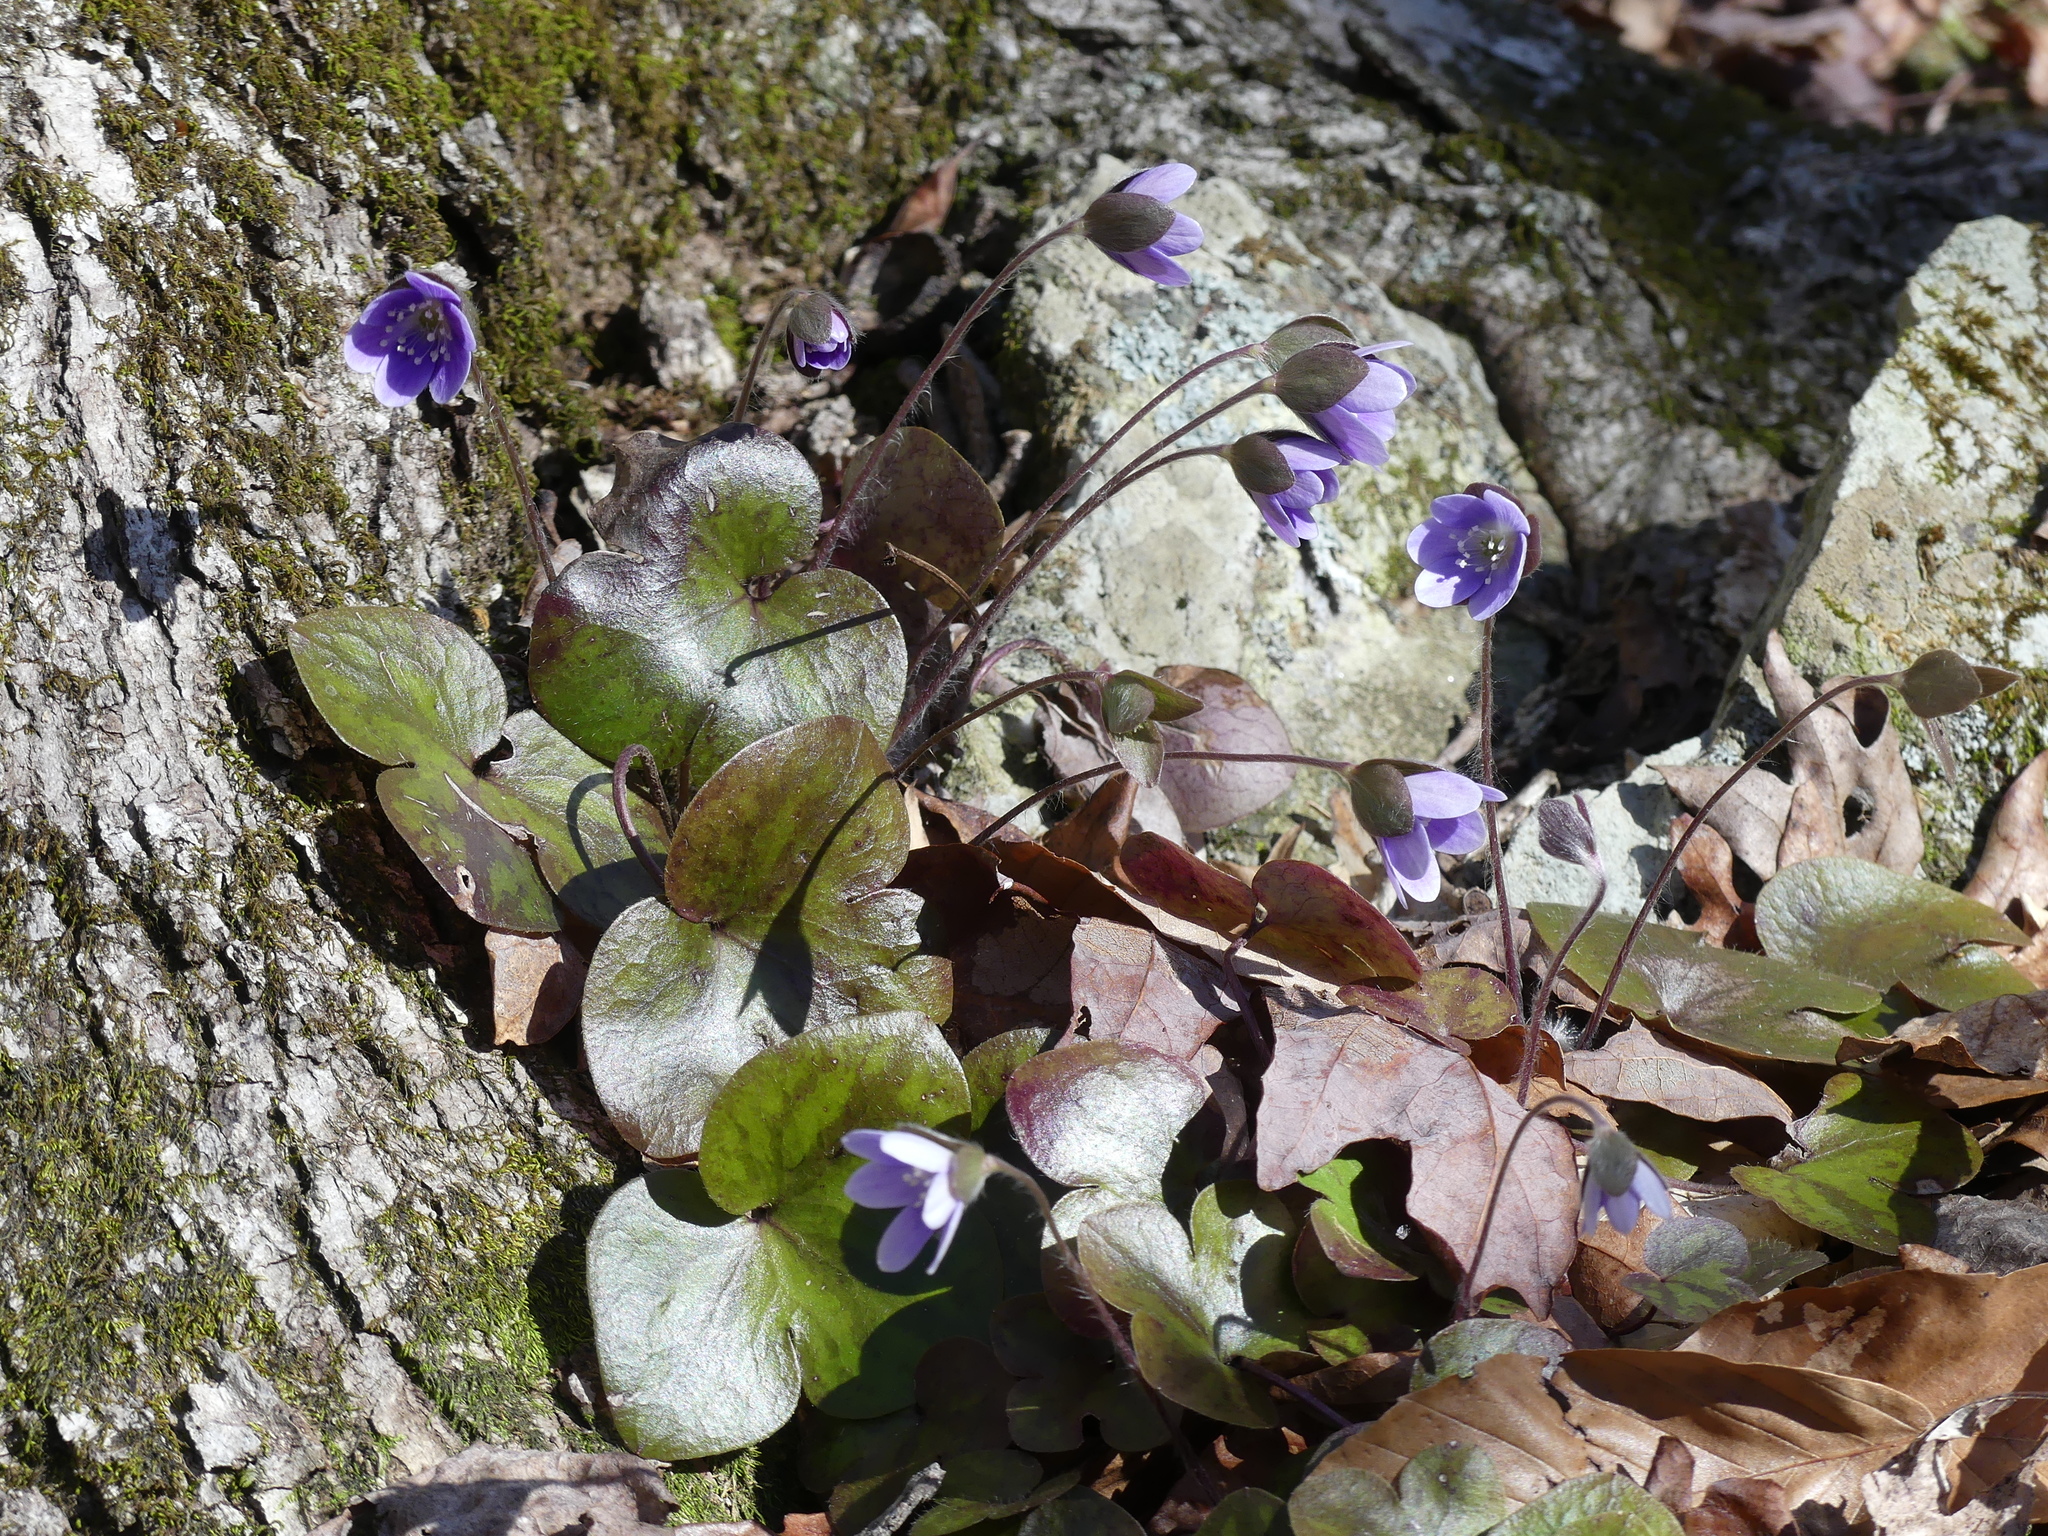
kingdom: Plantae
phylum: Tracheophyta
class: Magnoliopsida
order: Ranunculales
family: Ranunculaceae
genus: Hepatica
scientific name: Hepatica americana
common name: American hepatica
